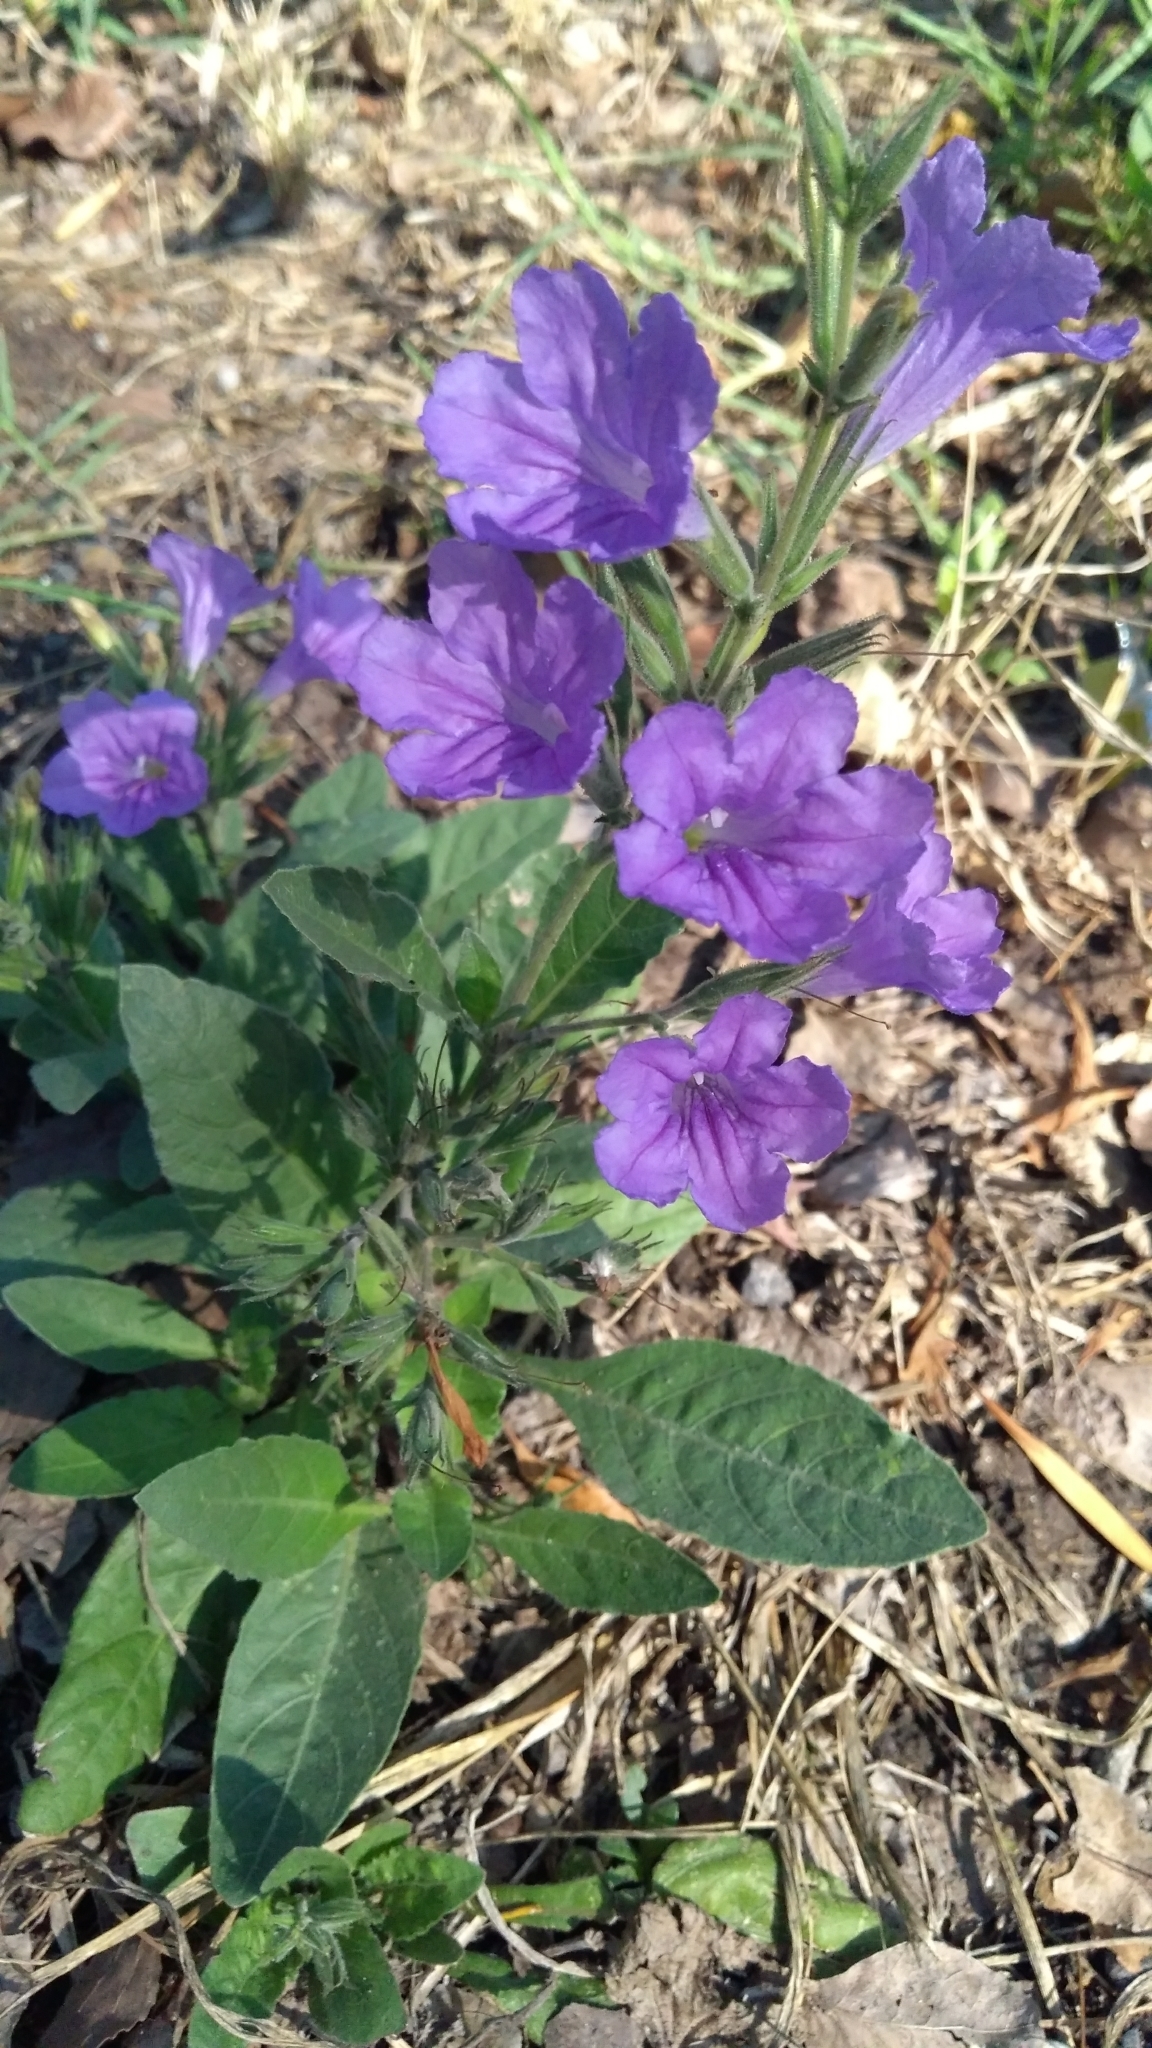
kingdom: Plantae
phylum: Tracheophyta
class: Magnoliopsida
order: Lamiales
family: Acanthaceae
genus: Ruellia
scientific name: Ruellia ciliatiflora
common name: Hairyflower wild petunia
